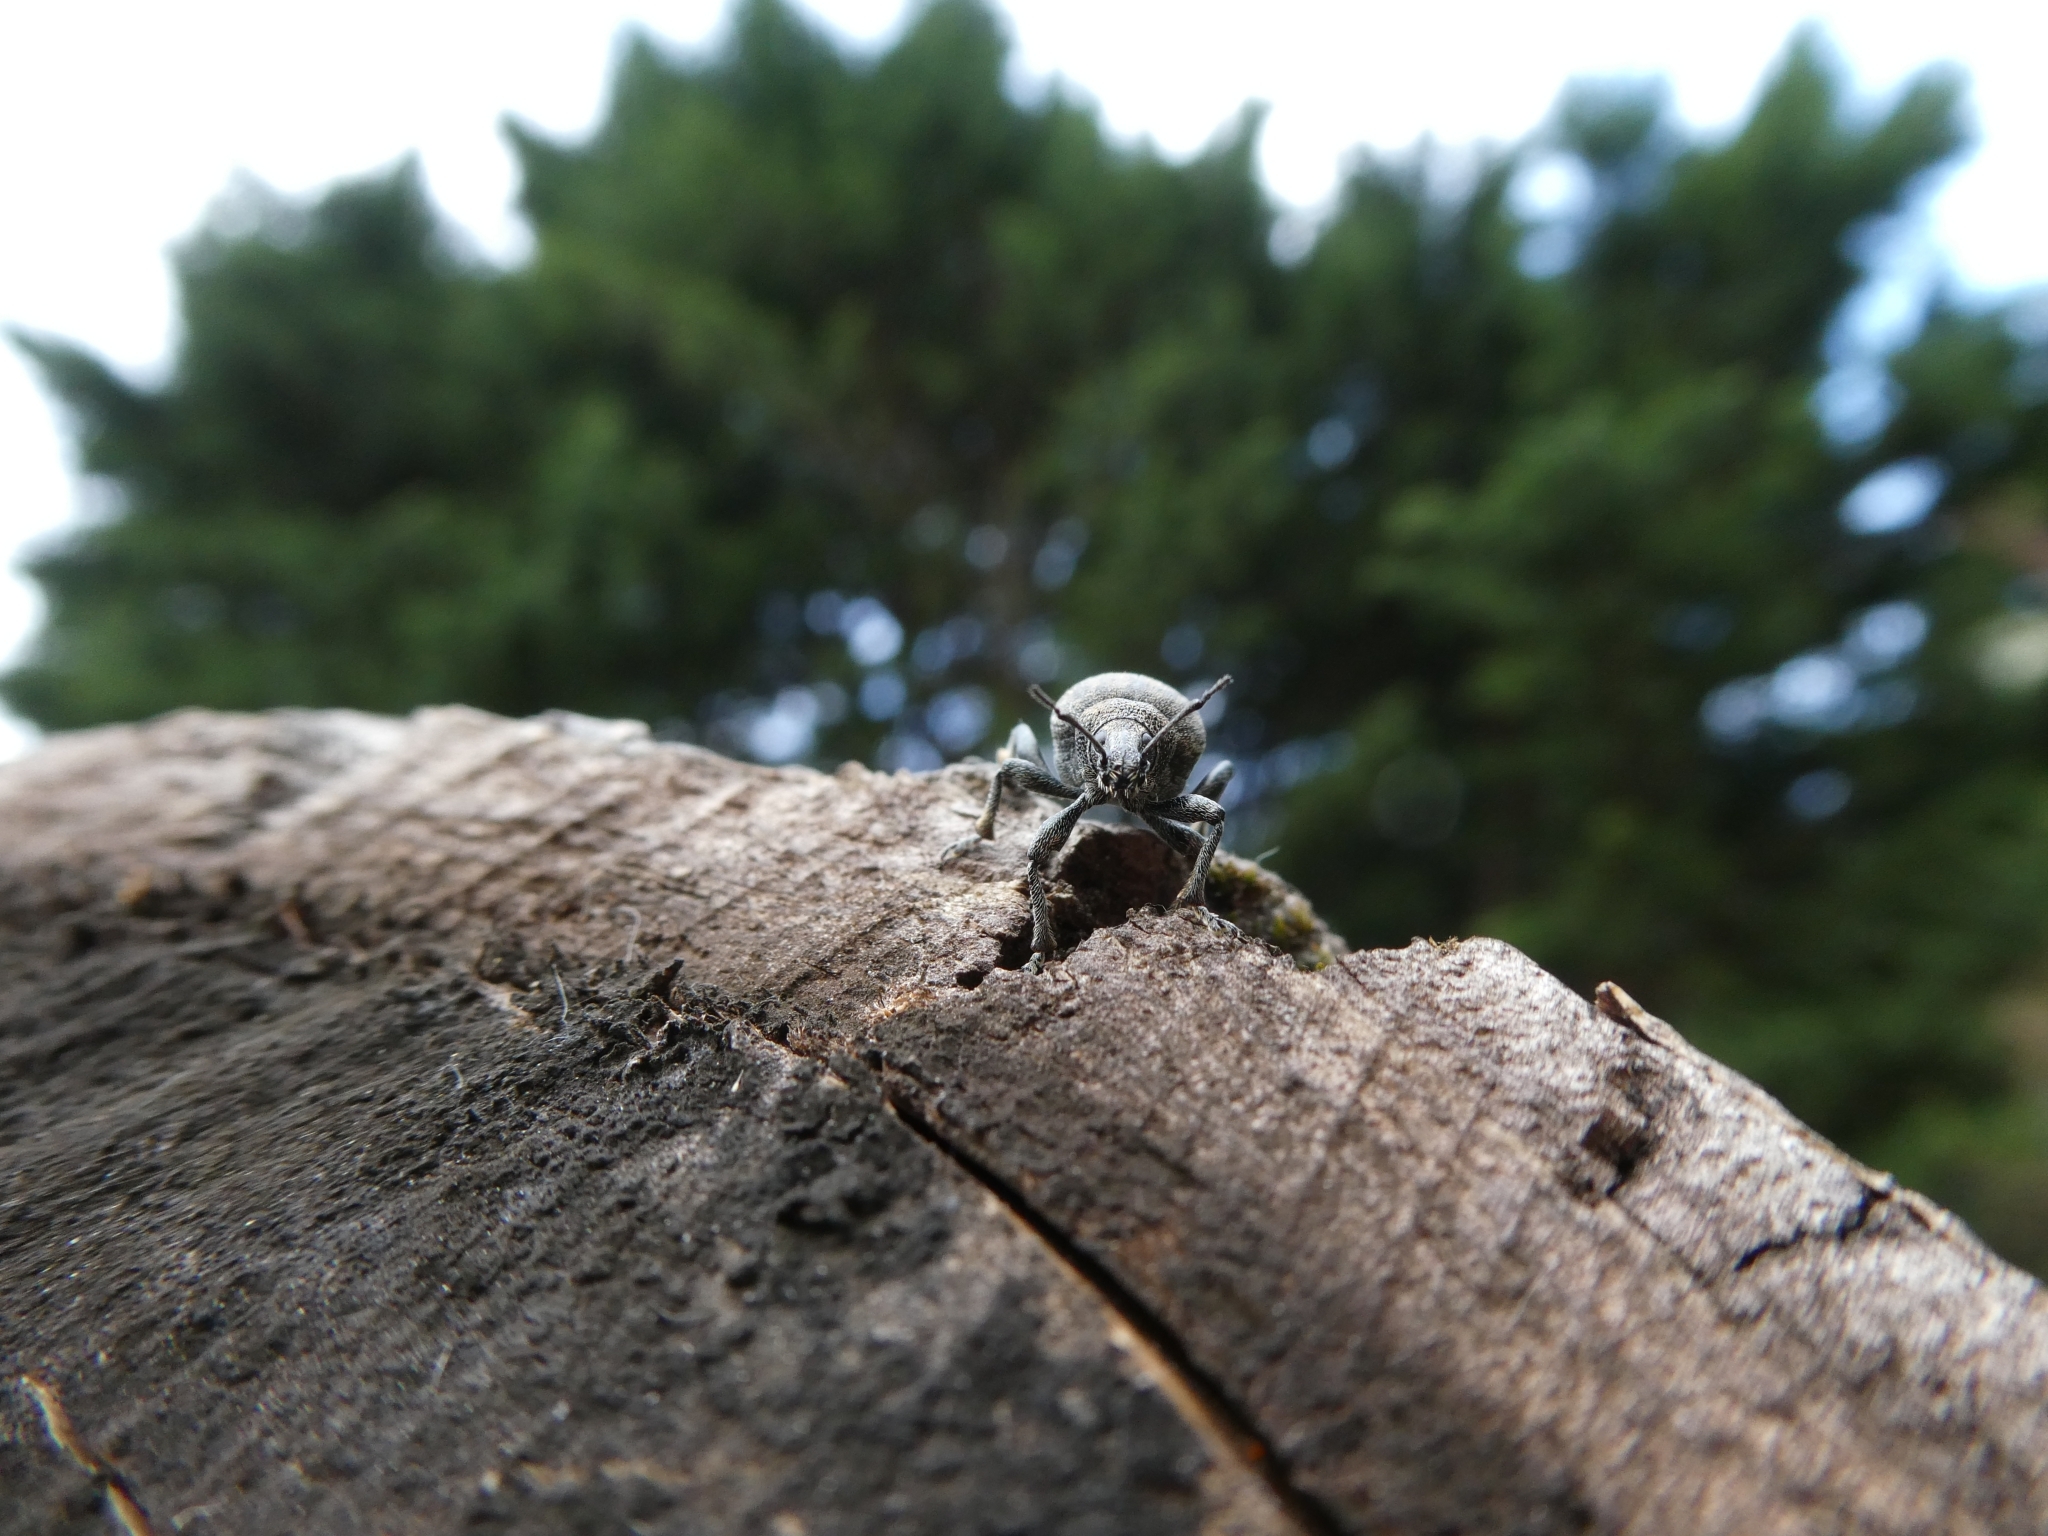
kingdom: Animalia
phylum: Arthropoda
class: Insecta
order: Coleoptera
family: Curculionidae
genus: Liophloeus
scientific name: Liophloeus tessulatus
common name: Weevil
